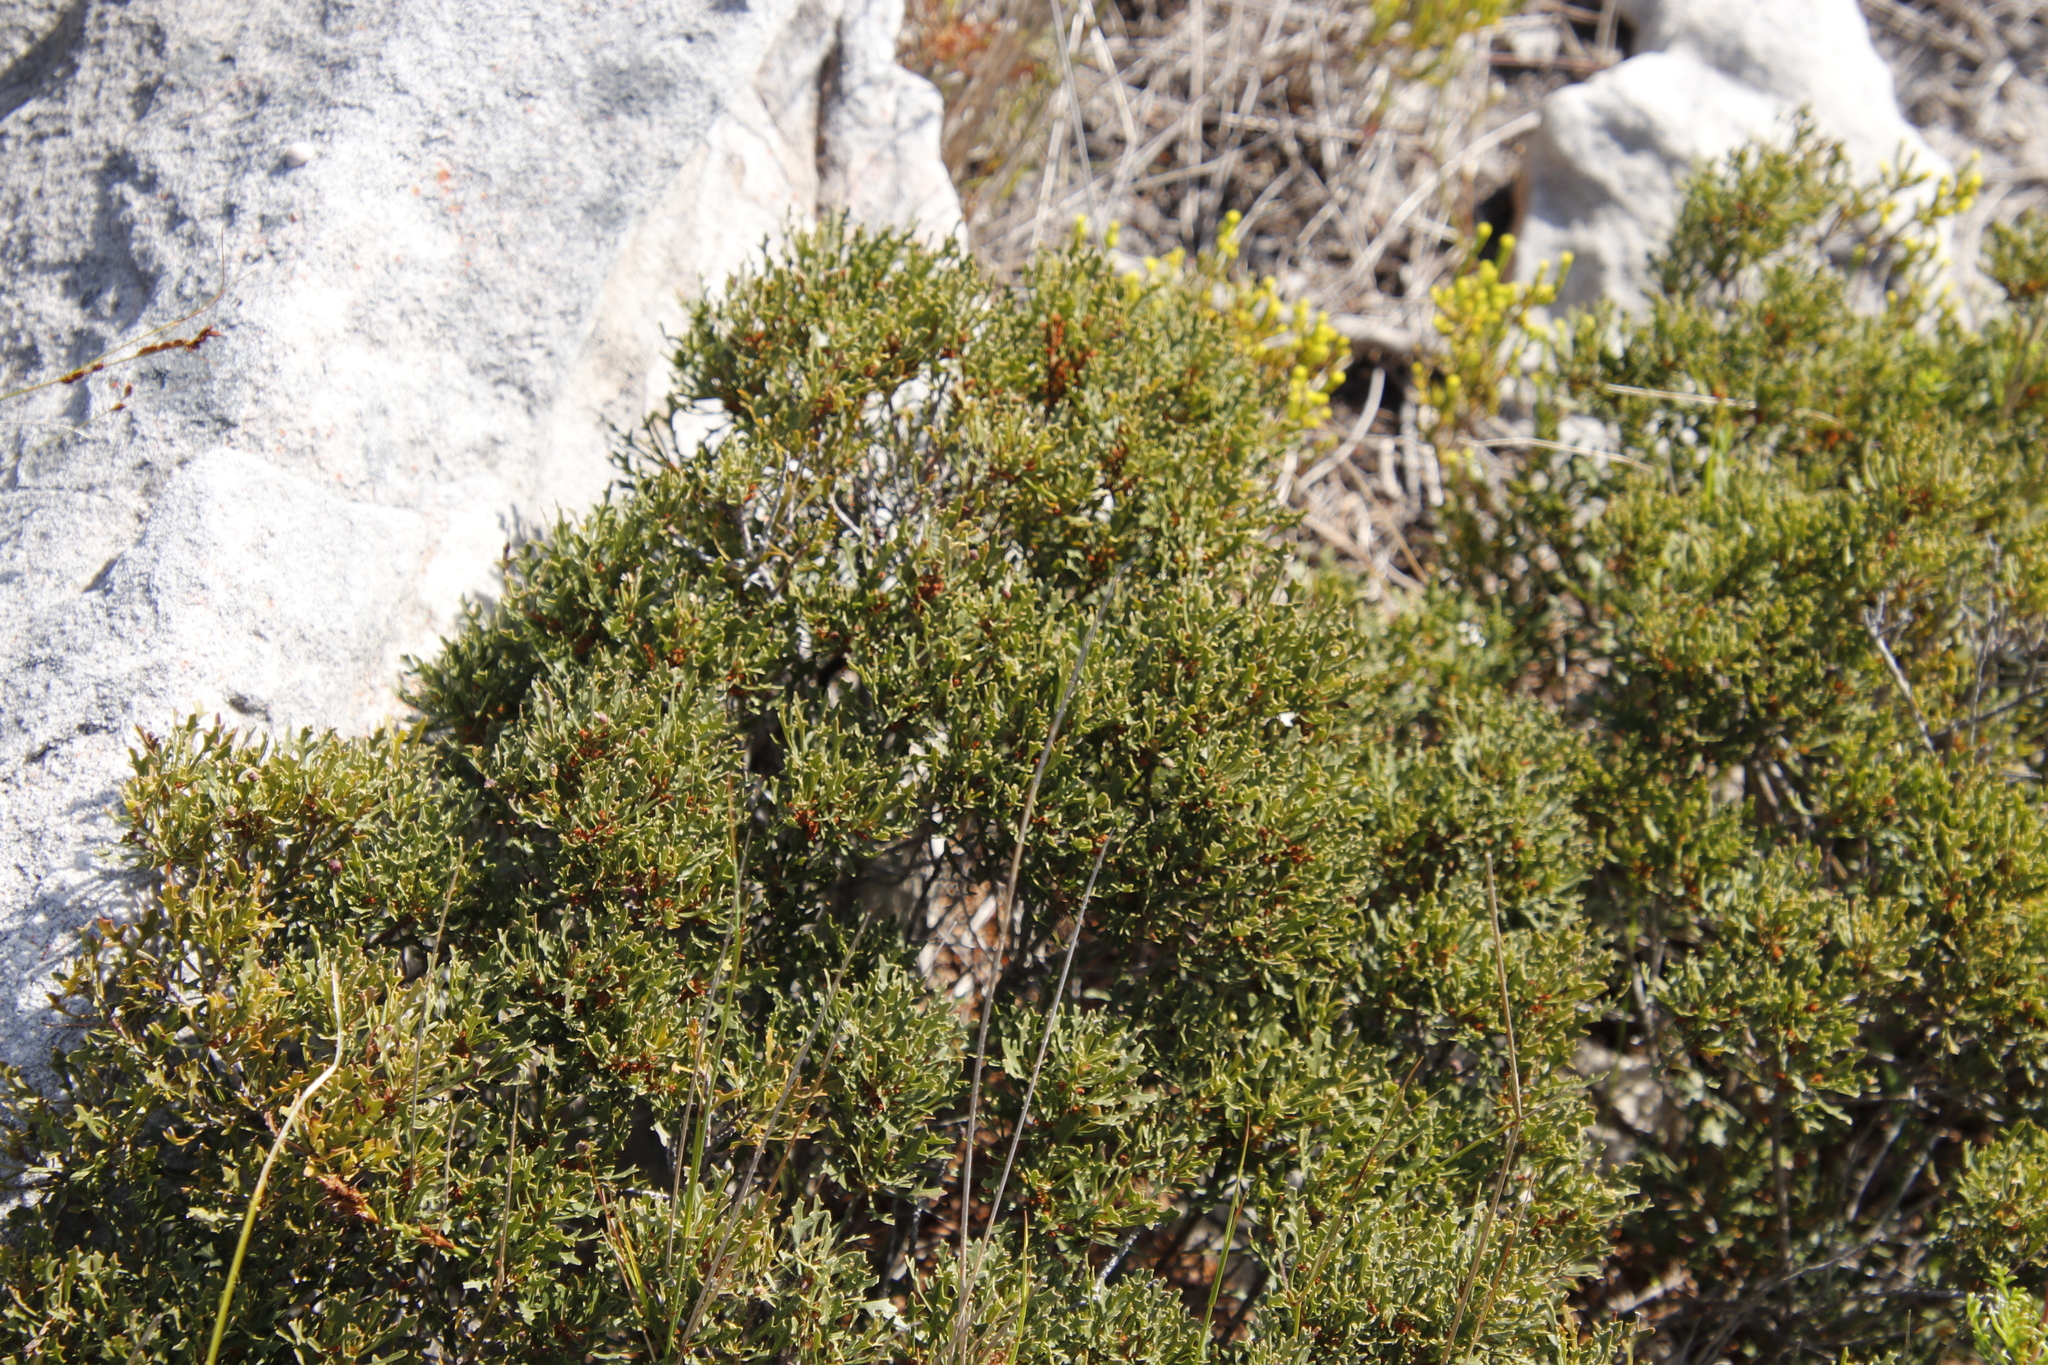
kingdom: Plantae
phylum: Tracheophyta
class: Magnoliopsida
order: Fagales
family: Myricaceae
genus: Morella
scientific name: Morella quercifolia
